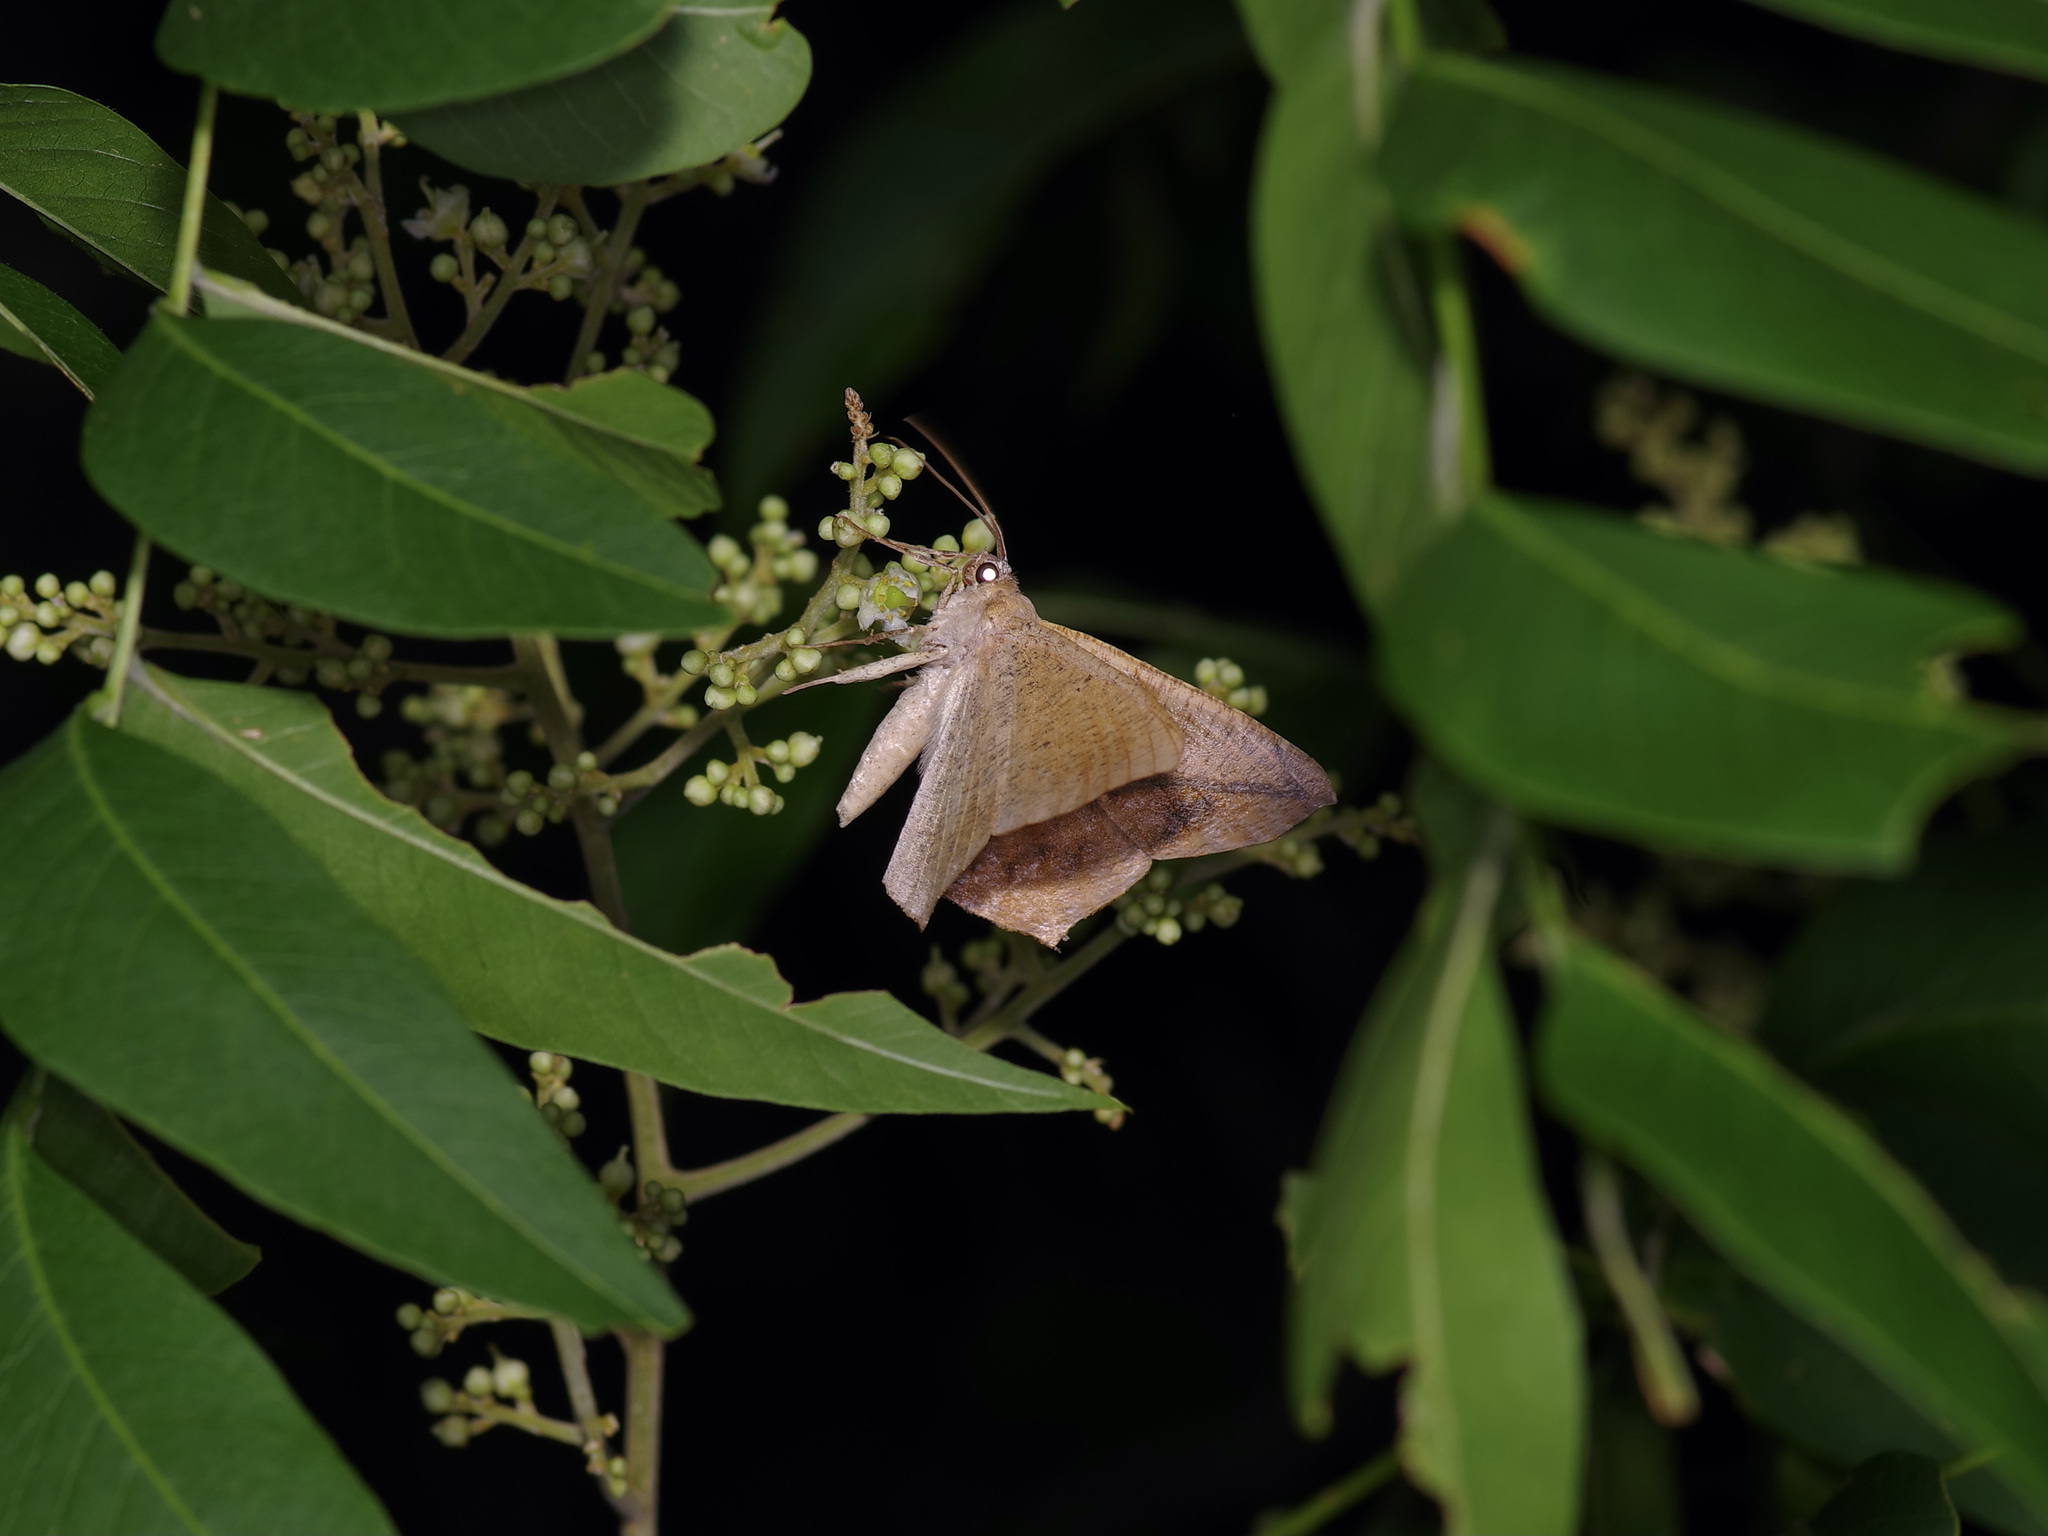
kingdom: Animalia
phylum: Arthropoda
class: Insecta
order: Lepidoptera
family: Geometridae
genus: Prochoerodes
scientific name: Prochoerodes lineola
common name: Large maple spanworm
